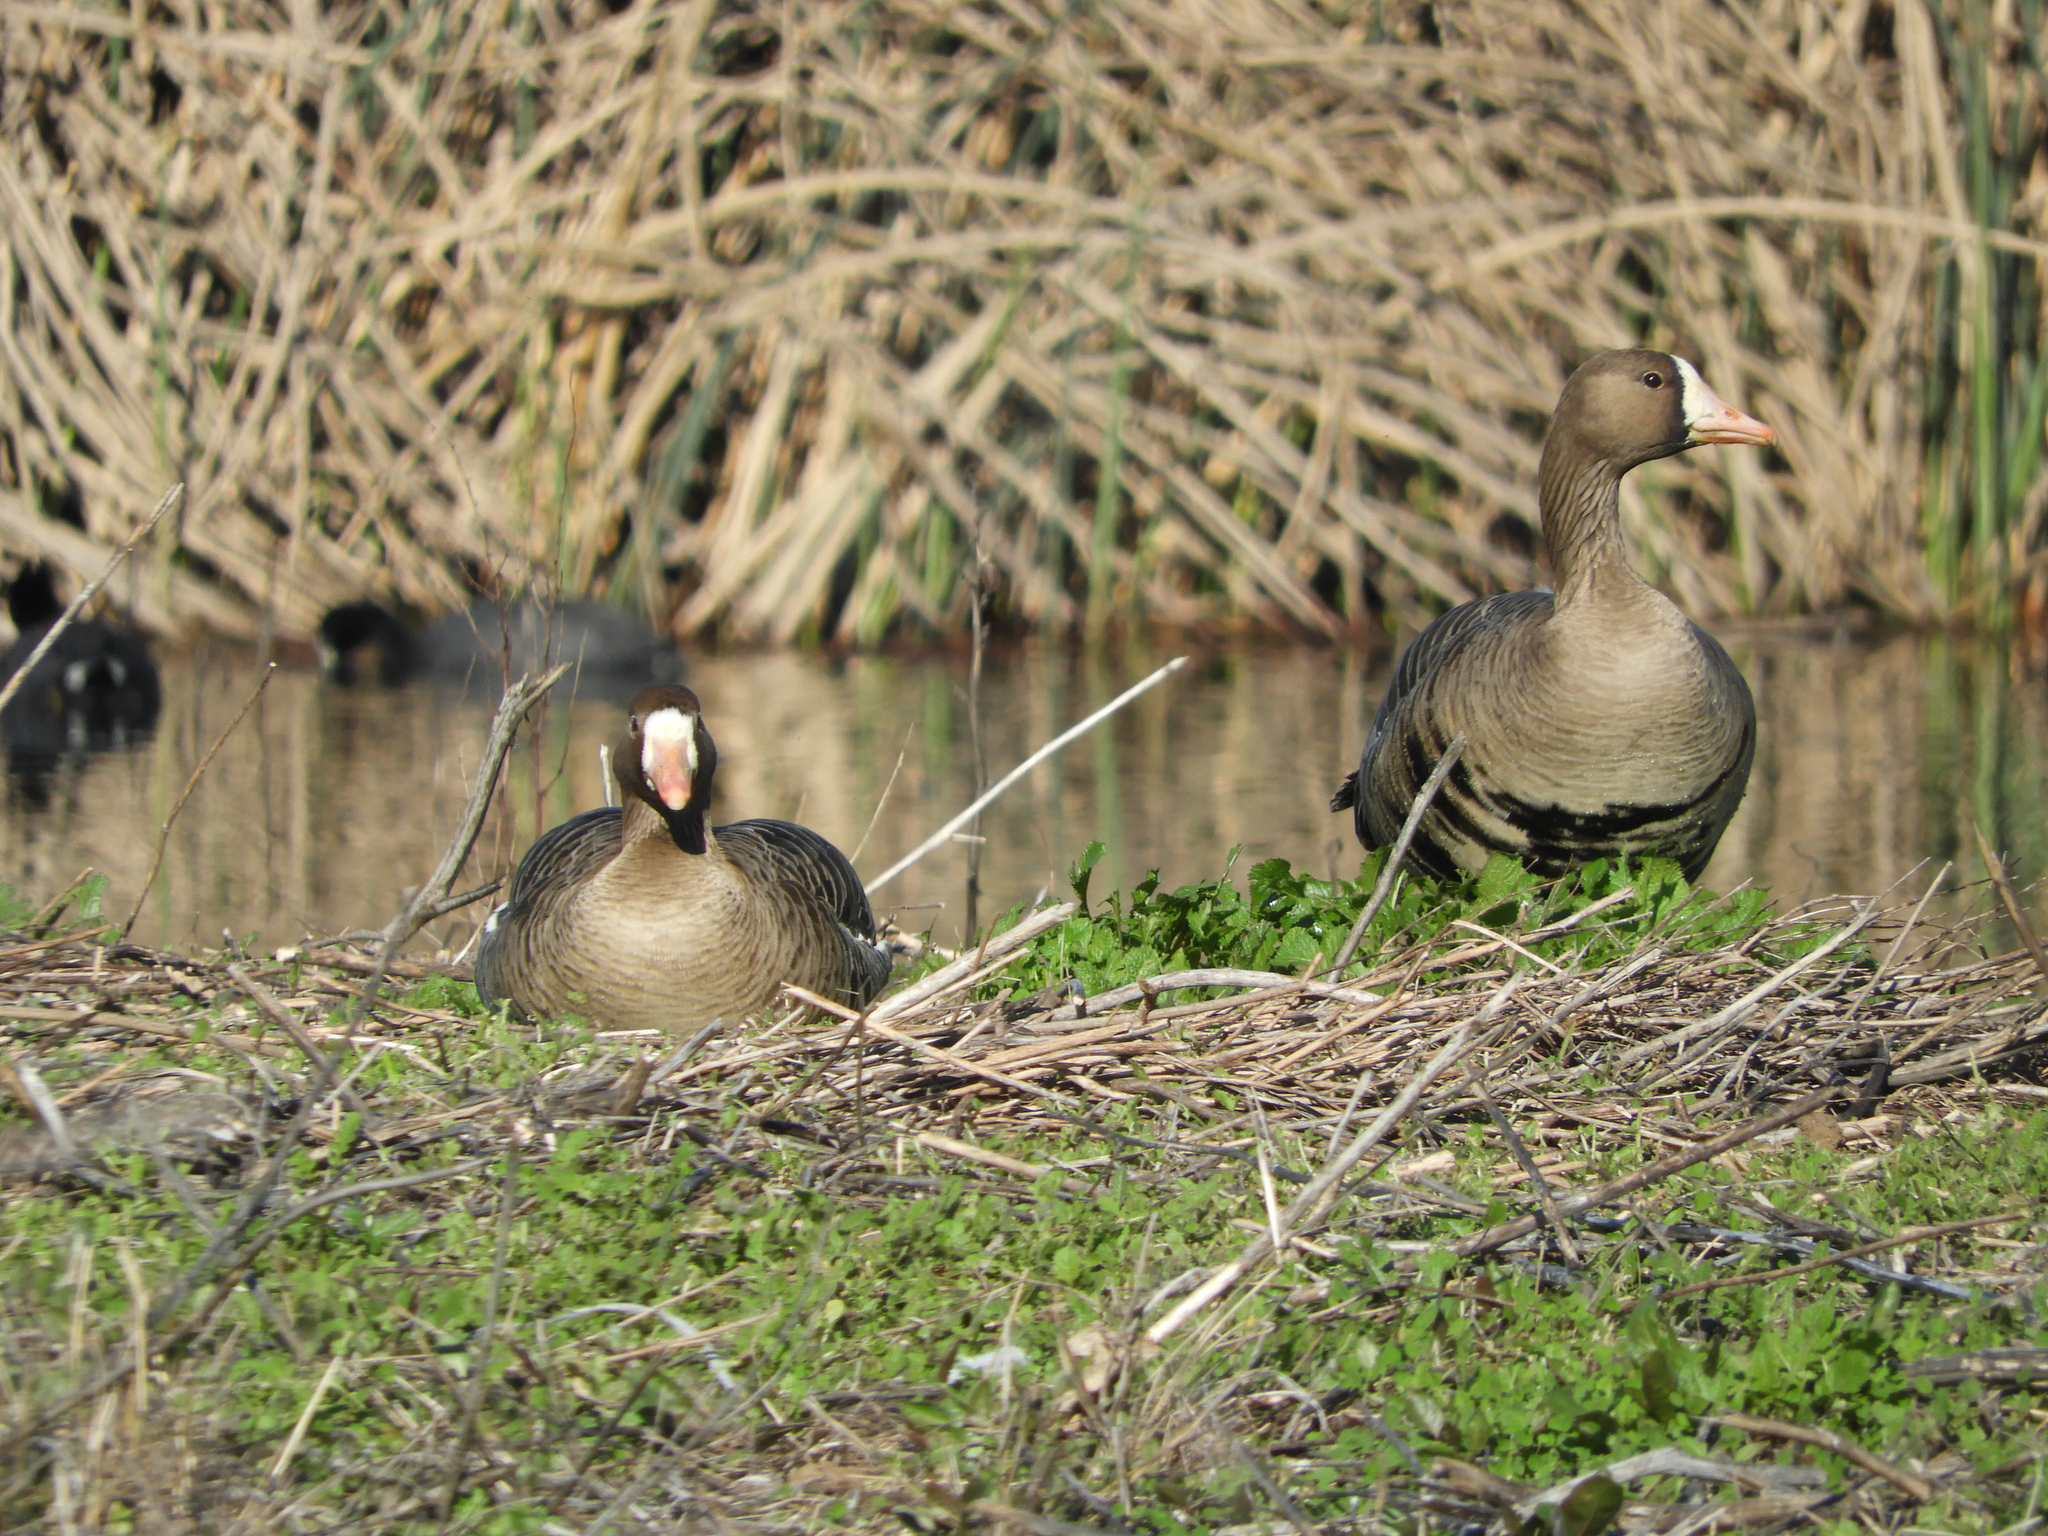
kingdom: Animalia
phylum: Chordata
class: Aves
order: Anseriformes
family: Anatidae
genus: Anser
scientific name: Anser albifrons
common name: Greater white-fronted goose
